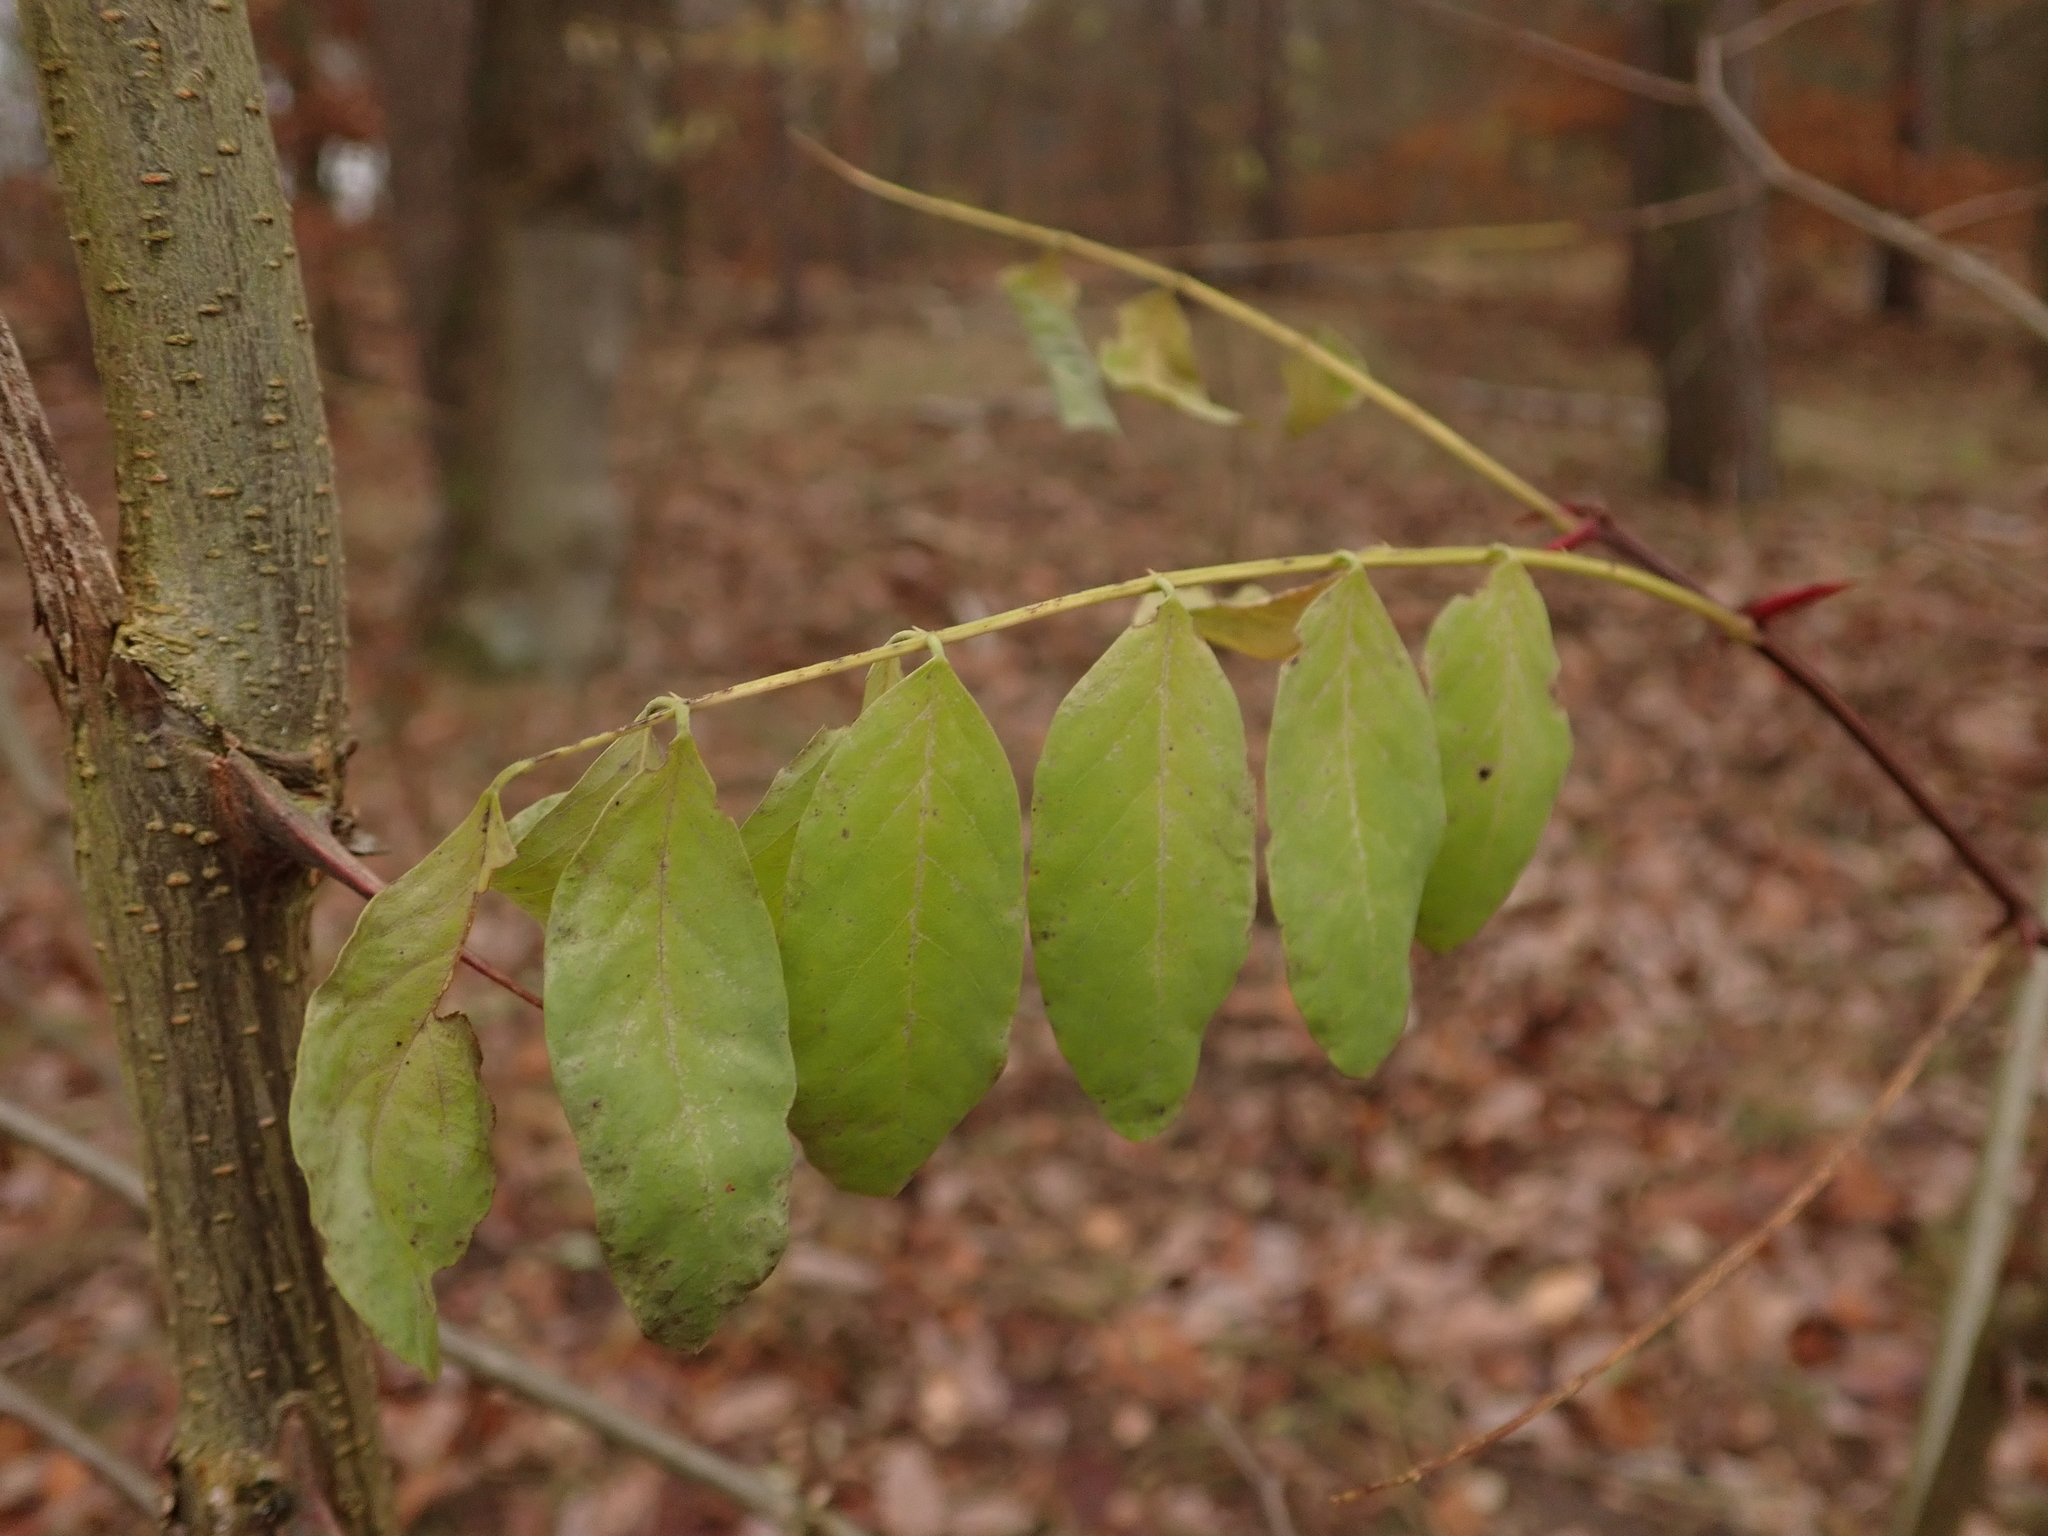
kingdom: Plantae
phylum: Tracheophyta
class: Magnoliopsida
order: Fabales
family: Fabaceae
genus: Robinia
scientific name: Robinia pseudoacacia
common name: Black locust
